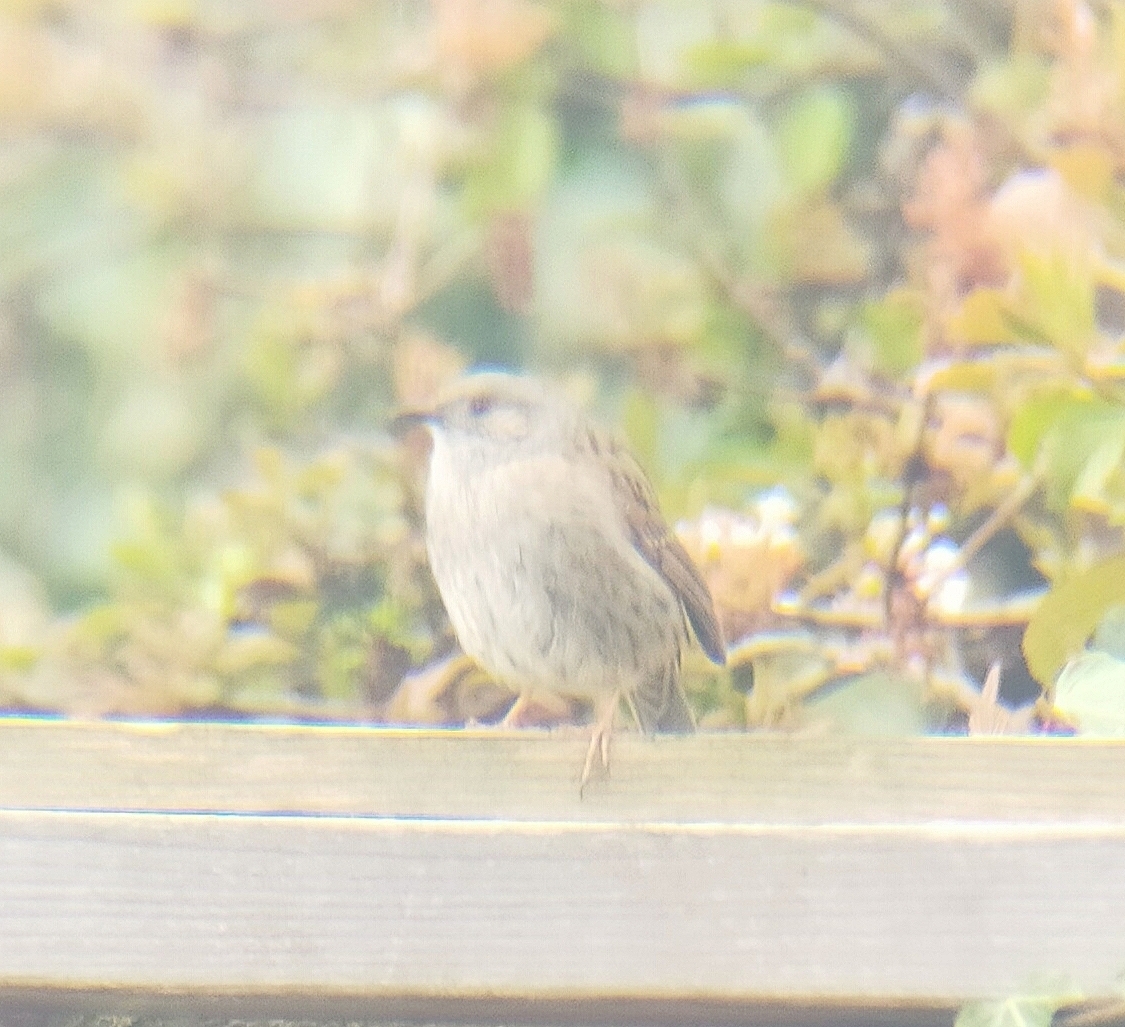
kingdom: Animalia
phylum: Chordata
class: Aves
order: Passeriformes
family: Prunellidae
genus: Prunella
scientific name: Prunella modularis
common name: Dunnock
